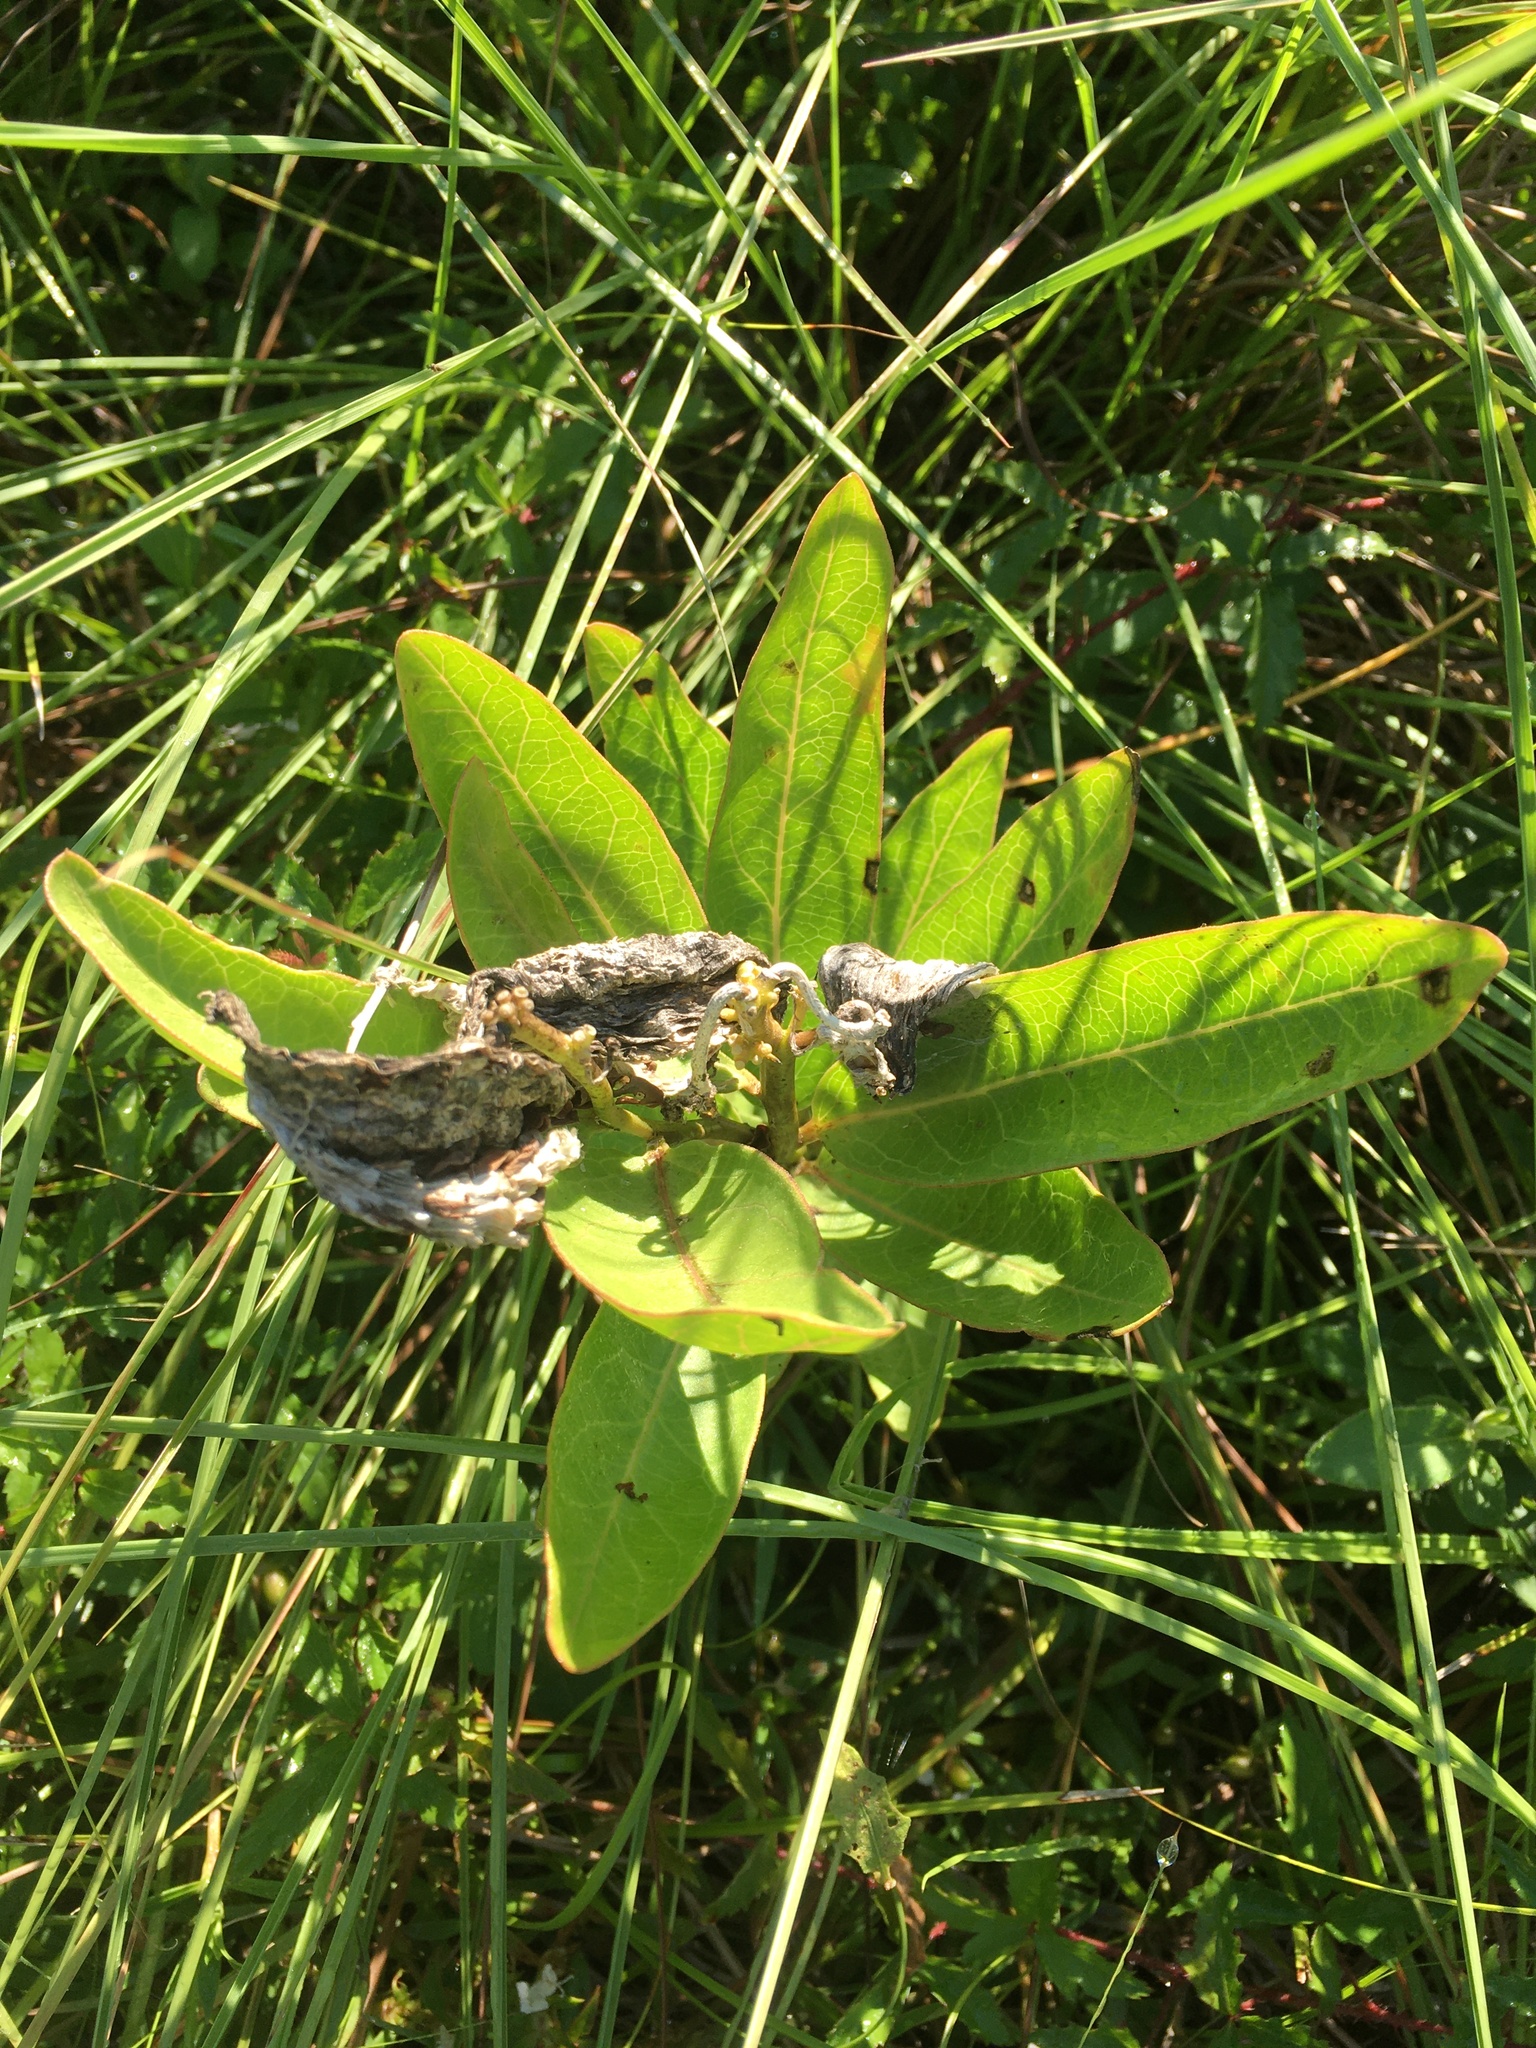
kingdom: Plantae
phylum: Tracheophyta
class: Magnoliopsida
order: Gentianales
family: Apocynaceae
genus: Asclepias
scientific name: Asclepias viridis
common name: Antelope-horns
